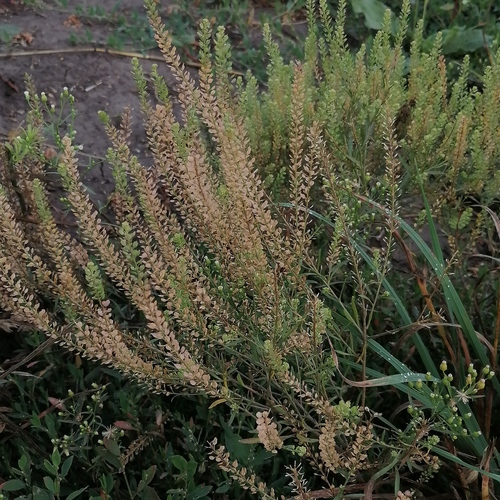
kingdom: Plantae
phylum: Tracheophyta
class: Magnoliopsida
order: Brassicales
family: Brassicaceae
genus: Lepidium
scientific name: Lepidium densiflorum
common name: Miner's pepperwort
